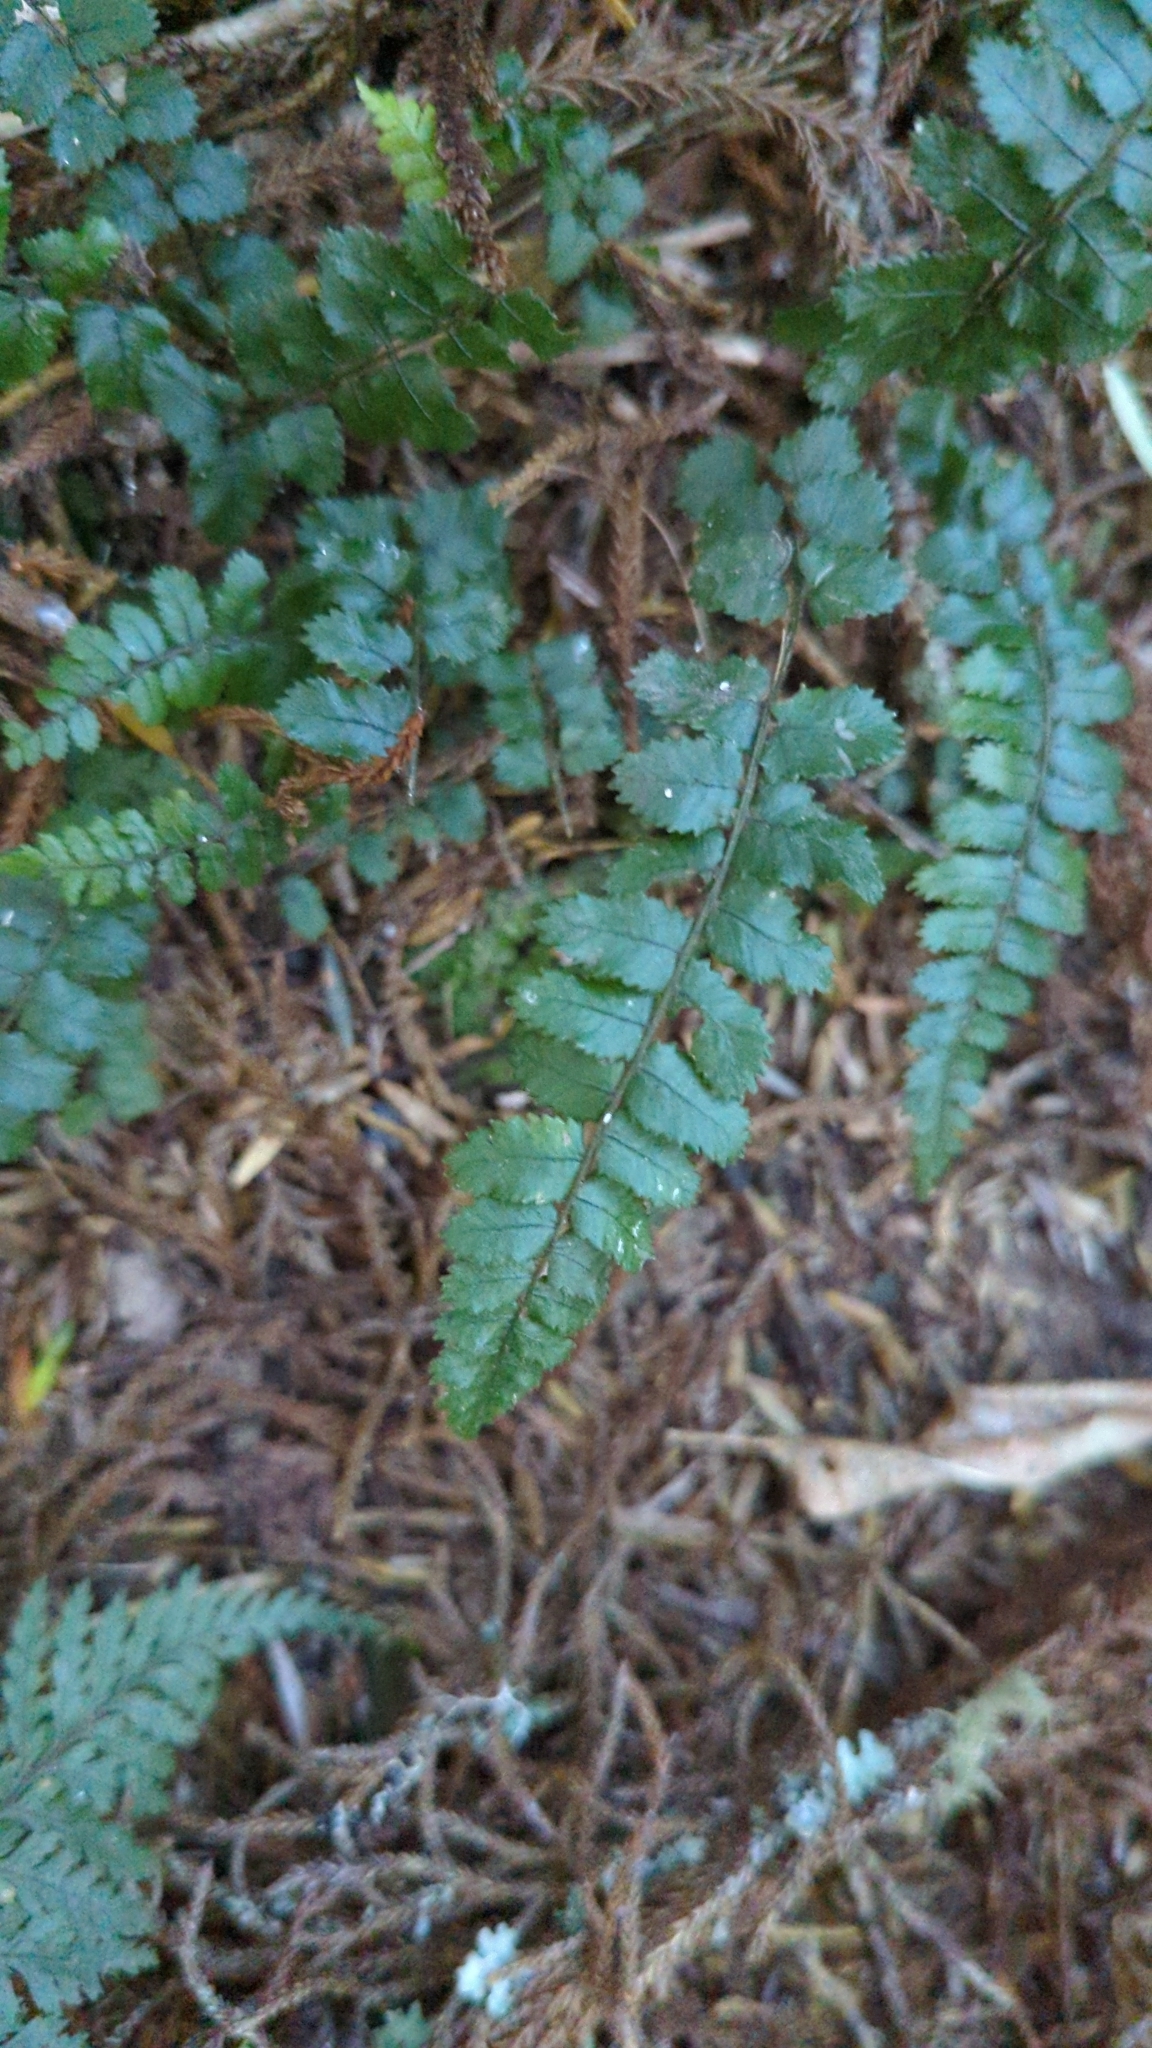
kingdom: Plantae
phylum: Tracheophyta
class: Polypodiopsida
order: Polypodiales
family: Blechnaceae
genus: Icarus
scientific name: Icarus filiformis
